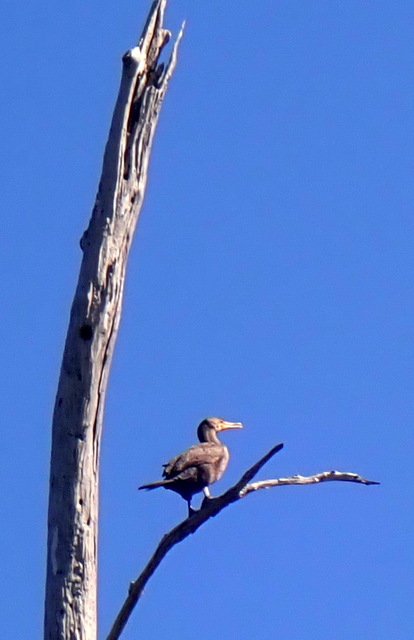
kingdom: Animalia
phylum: Chordata
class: Aves
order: Suliformes
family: Phalacrocoracidae
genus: Phalacrocorax
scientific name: Phalacrocorax auritus
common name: Double-crested cormorant
